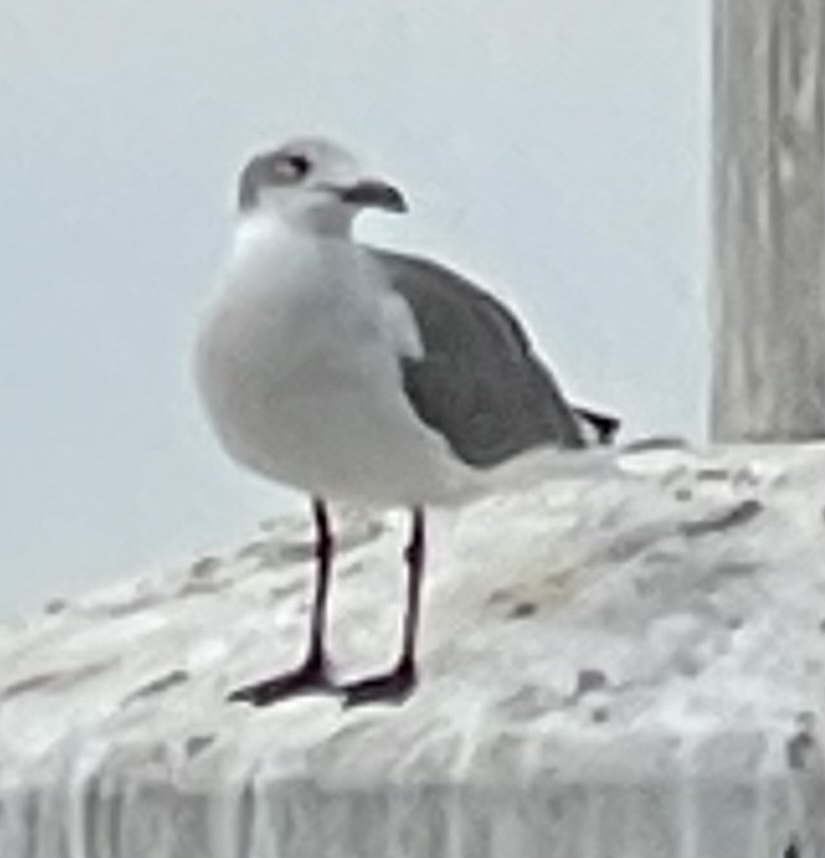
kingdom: Animalia
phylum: Chordata
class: Aves
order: Charadriiformes
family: Laridae
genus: Leucophaeus
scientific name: Leucophaeus atricilla
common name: Laughing gull
